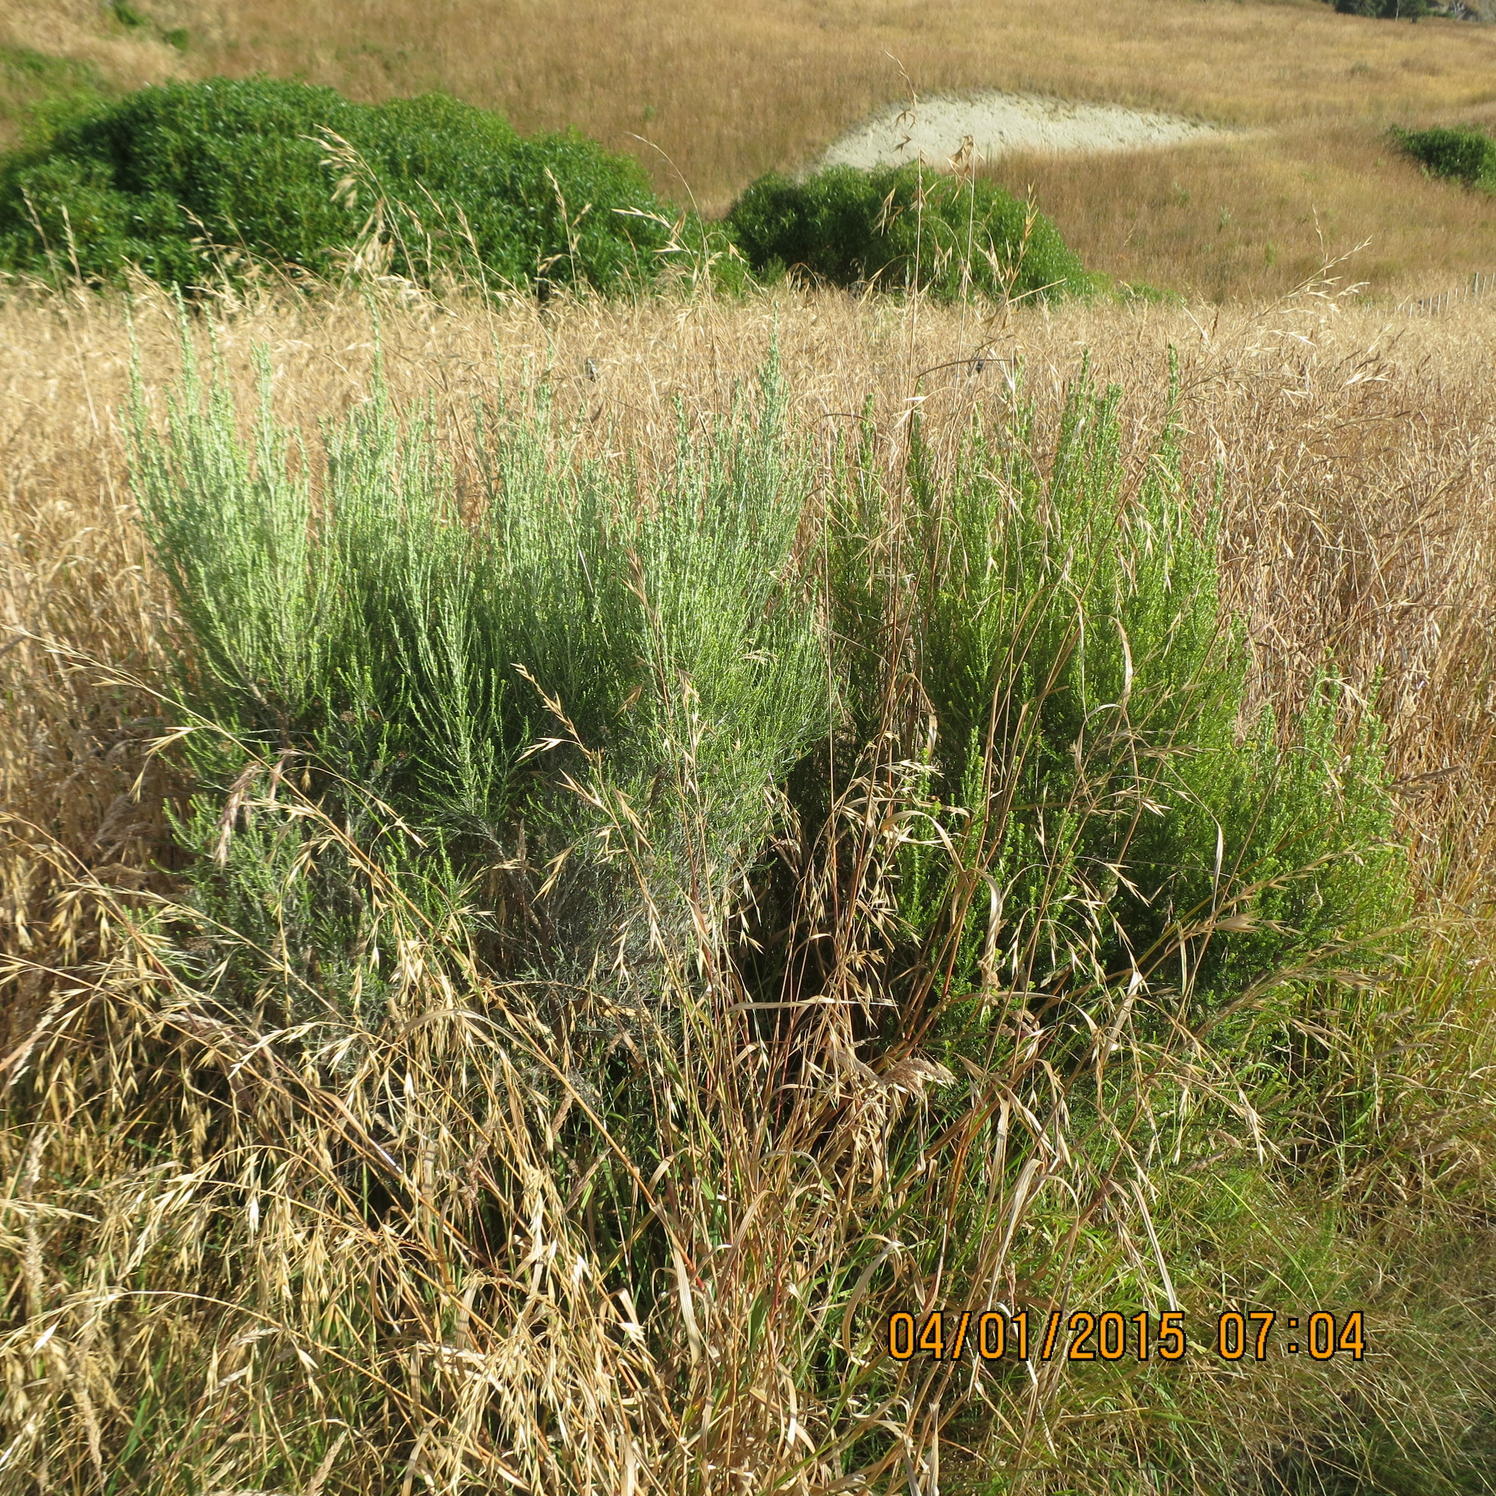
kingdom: Plantae
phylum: Tracheophyta
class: Magnoliopsida
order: Asterales
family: Asteraceae
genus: Ozothamnus
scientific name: Ozothamnus leptophyllus
